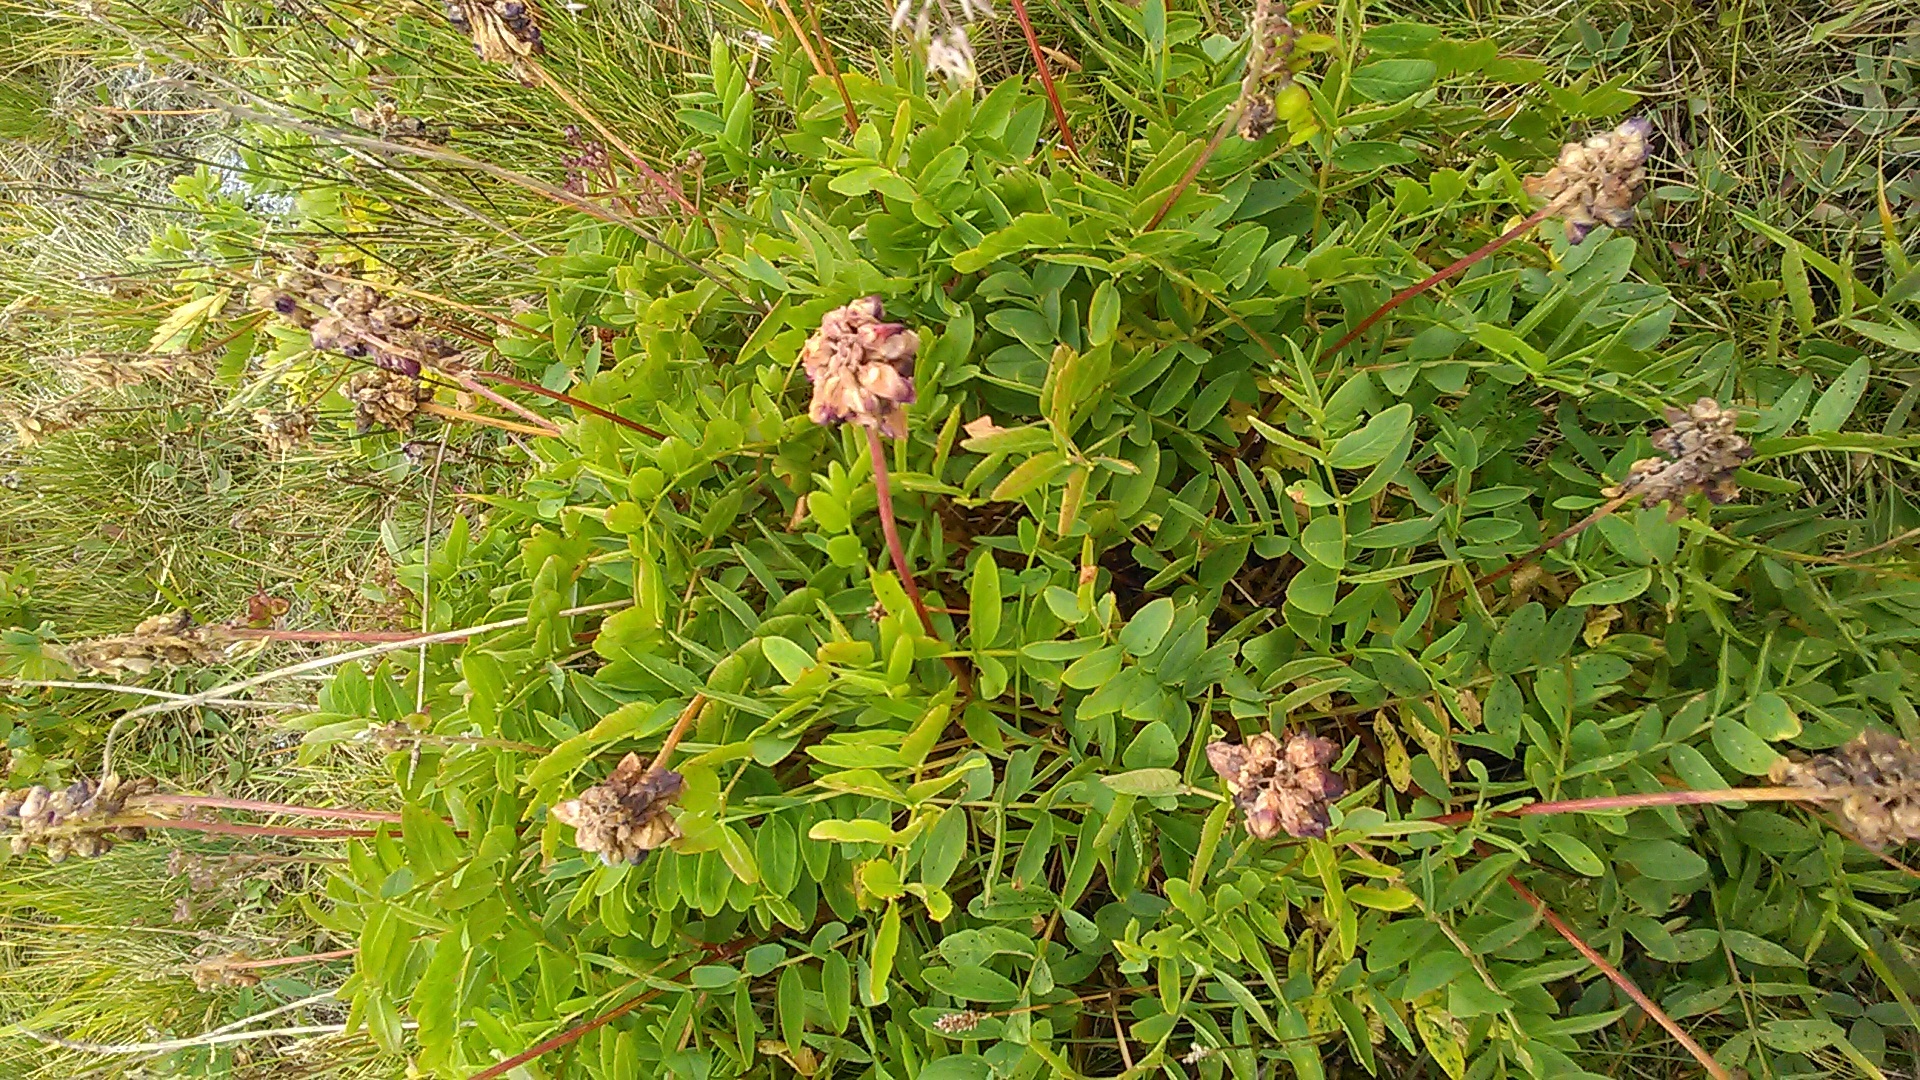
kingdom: Plantae
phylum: Tracheophyta
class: Magnoliopsida
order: Fabales
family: Fabaceae
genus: Hedysarum
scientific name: Hedysarum caucasicum
